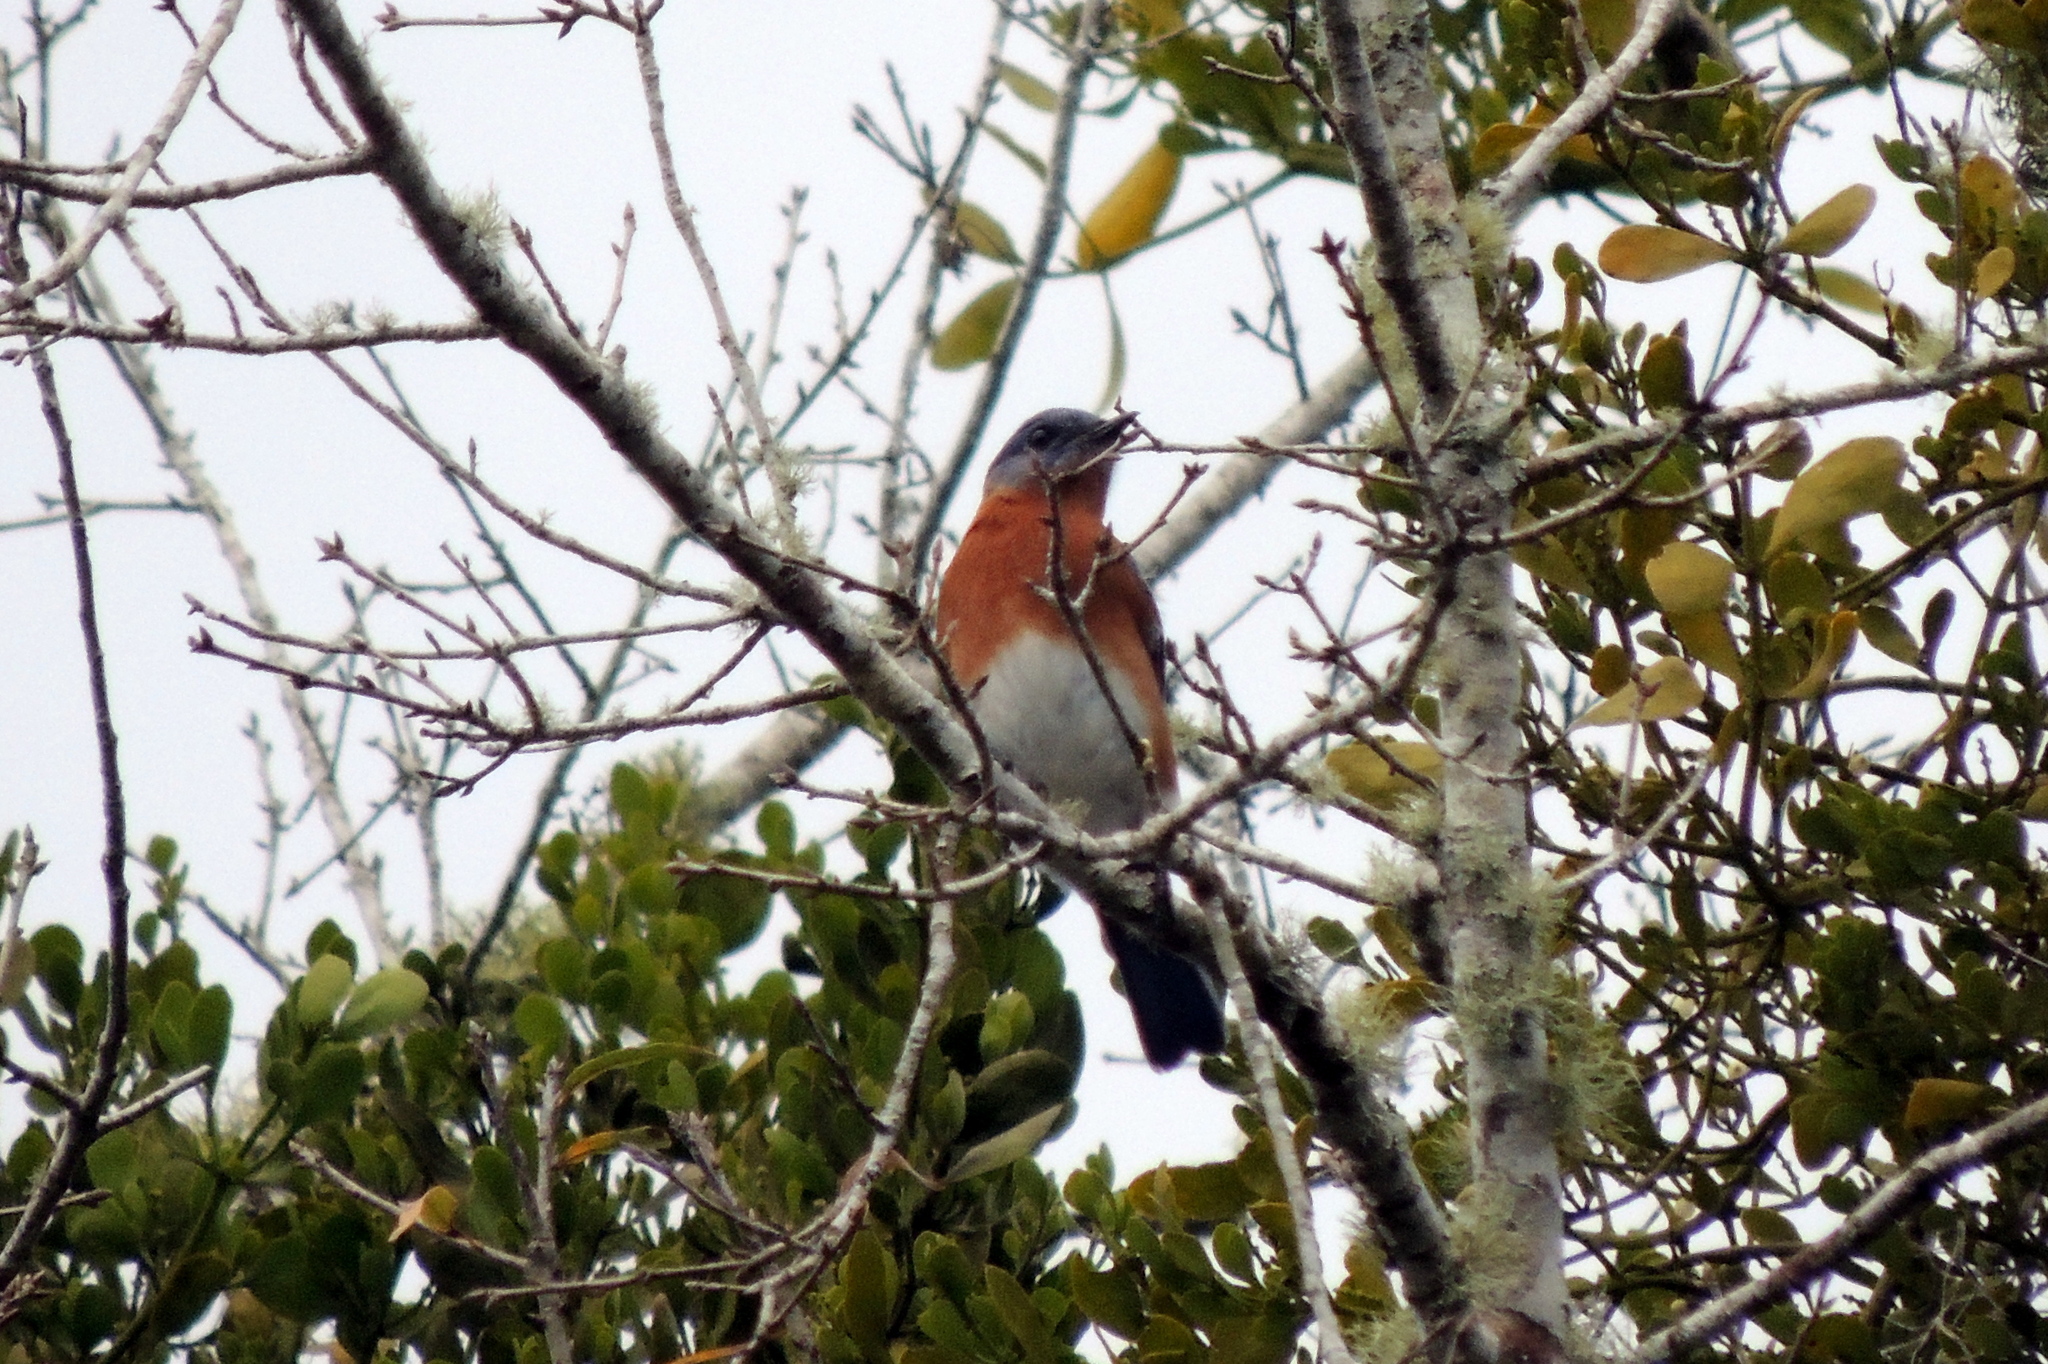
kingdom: Animalia
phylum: Chordata
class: Aves
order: Passeriformes
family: Turdidae
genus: Sialia
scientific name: Sialia sialis
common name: Eastern bluebird
